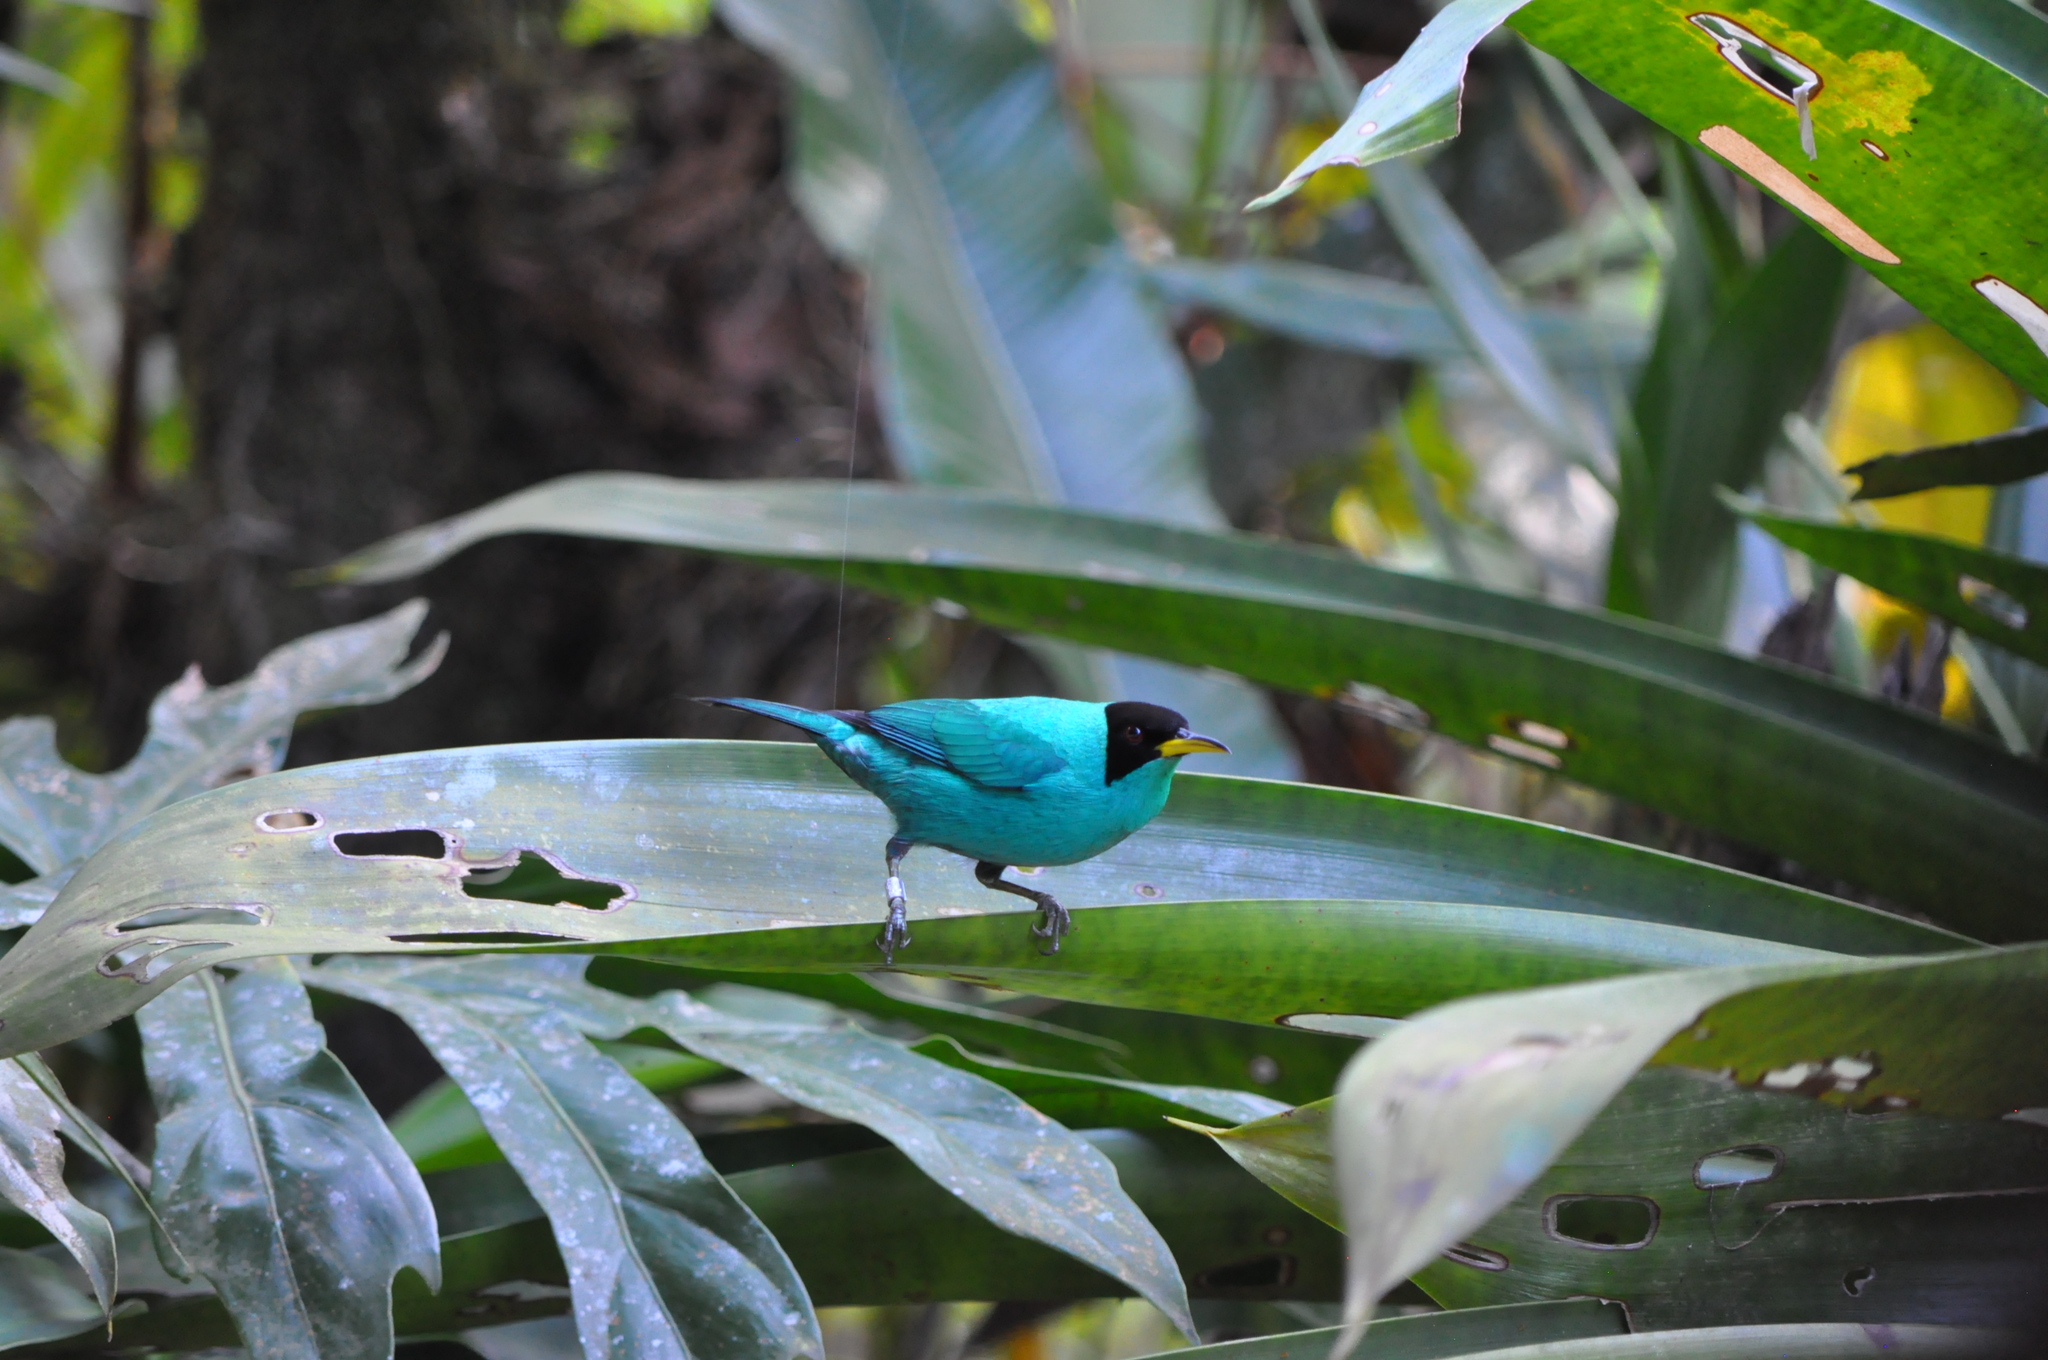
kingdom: Animalia
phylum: Chordata
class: Aves
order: Passeriformes
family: Thraupidae
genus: Chlorophanes
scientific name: Chlorophanes spiza
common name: Green honeycreeper
